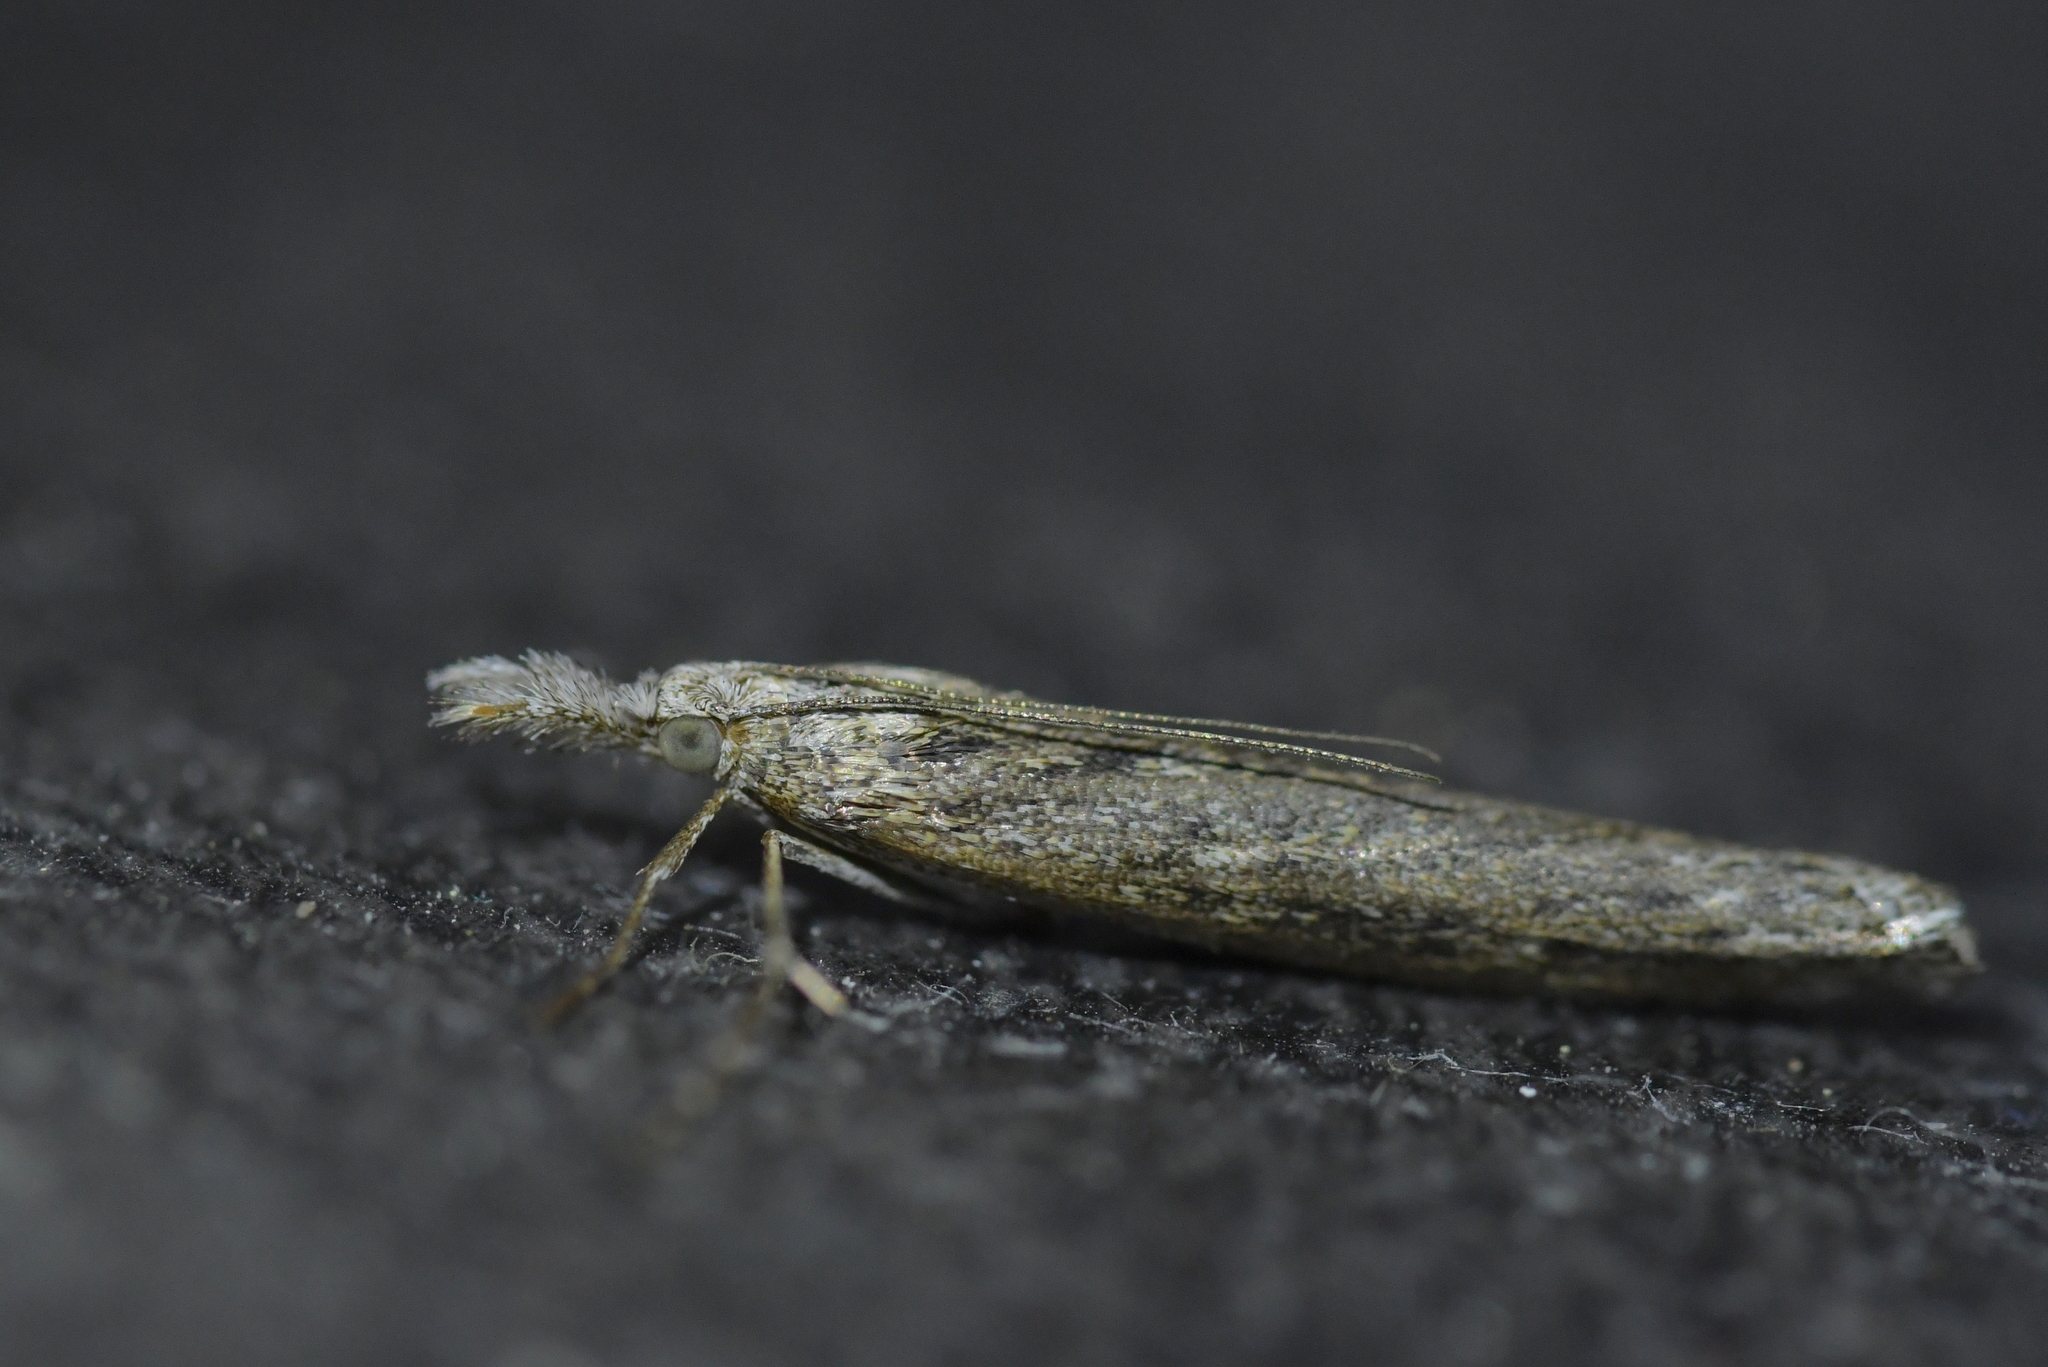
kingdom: Animalia
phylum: Arthropoda
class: Insecta
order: Lepidoptera
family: Crambidae
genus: Orocrambus
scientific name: Orocrambus cyclopicus
